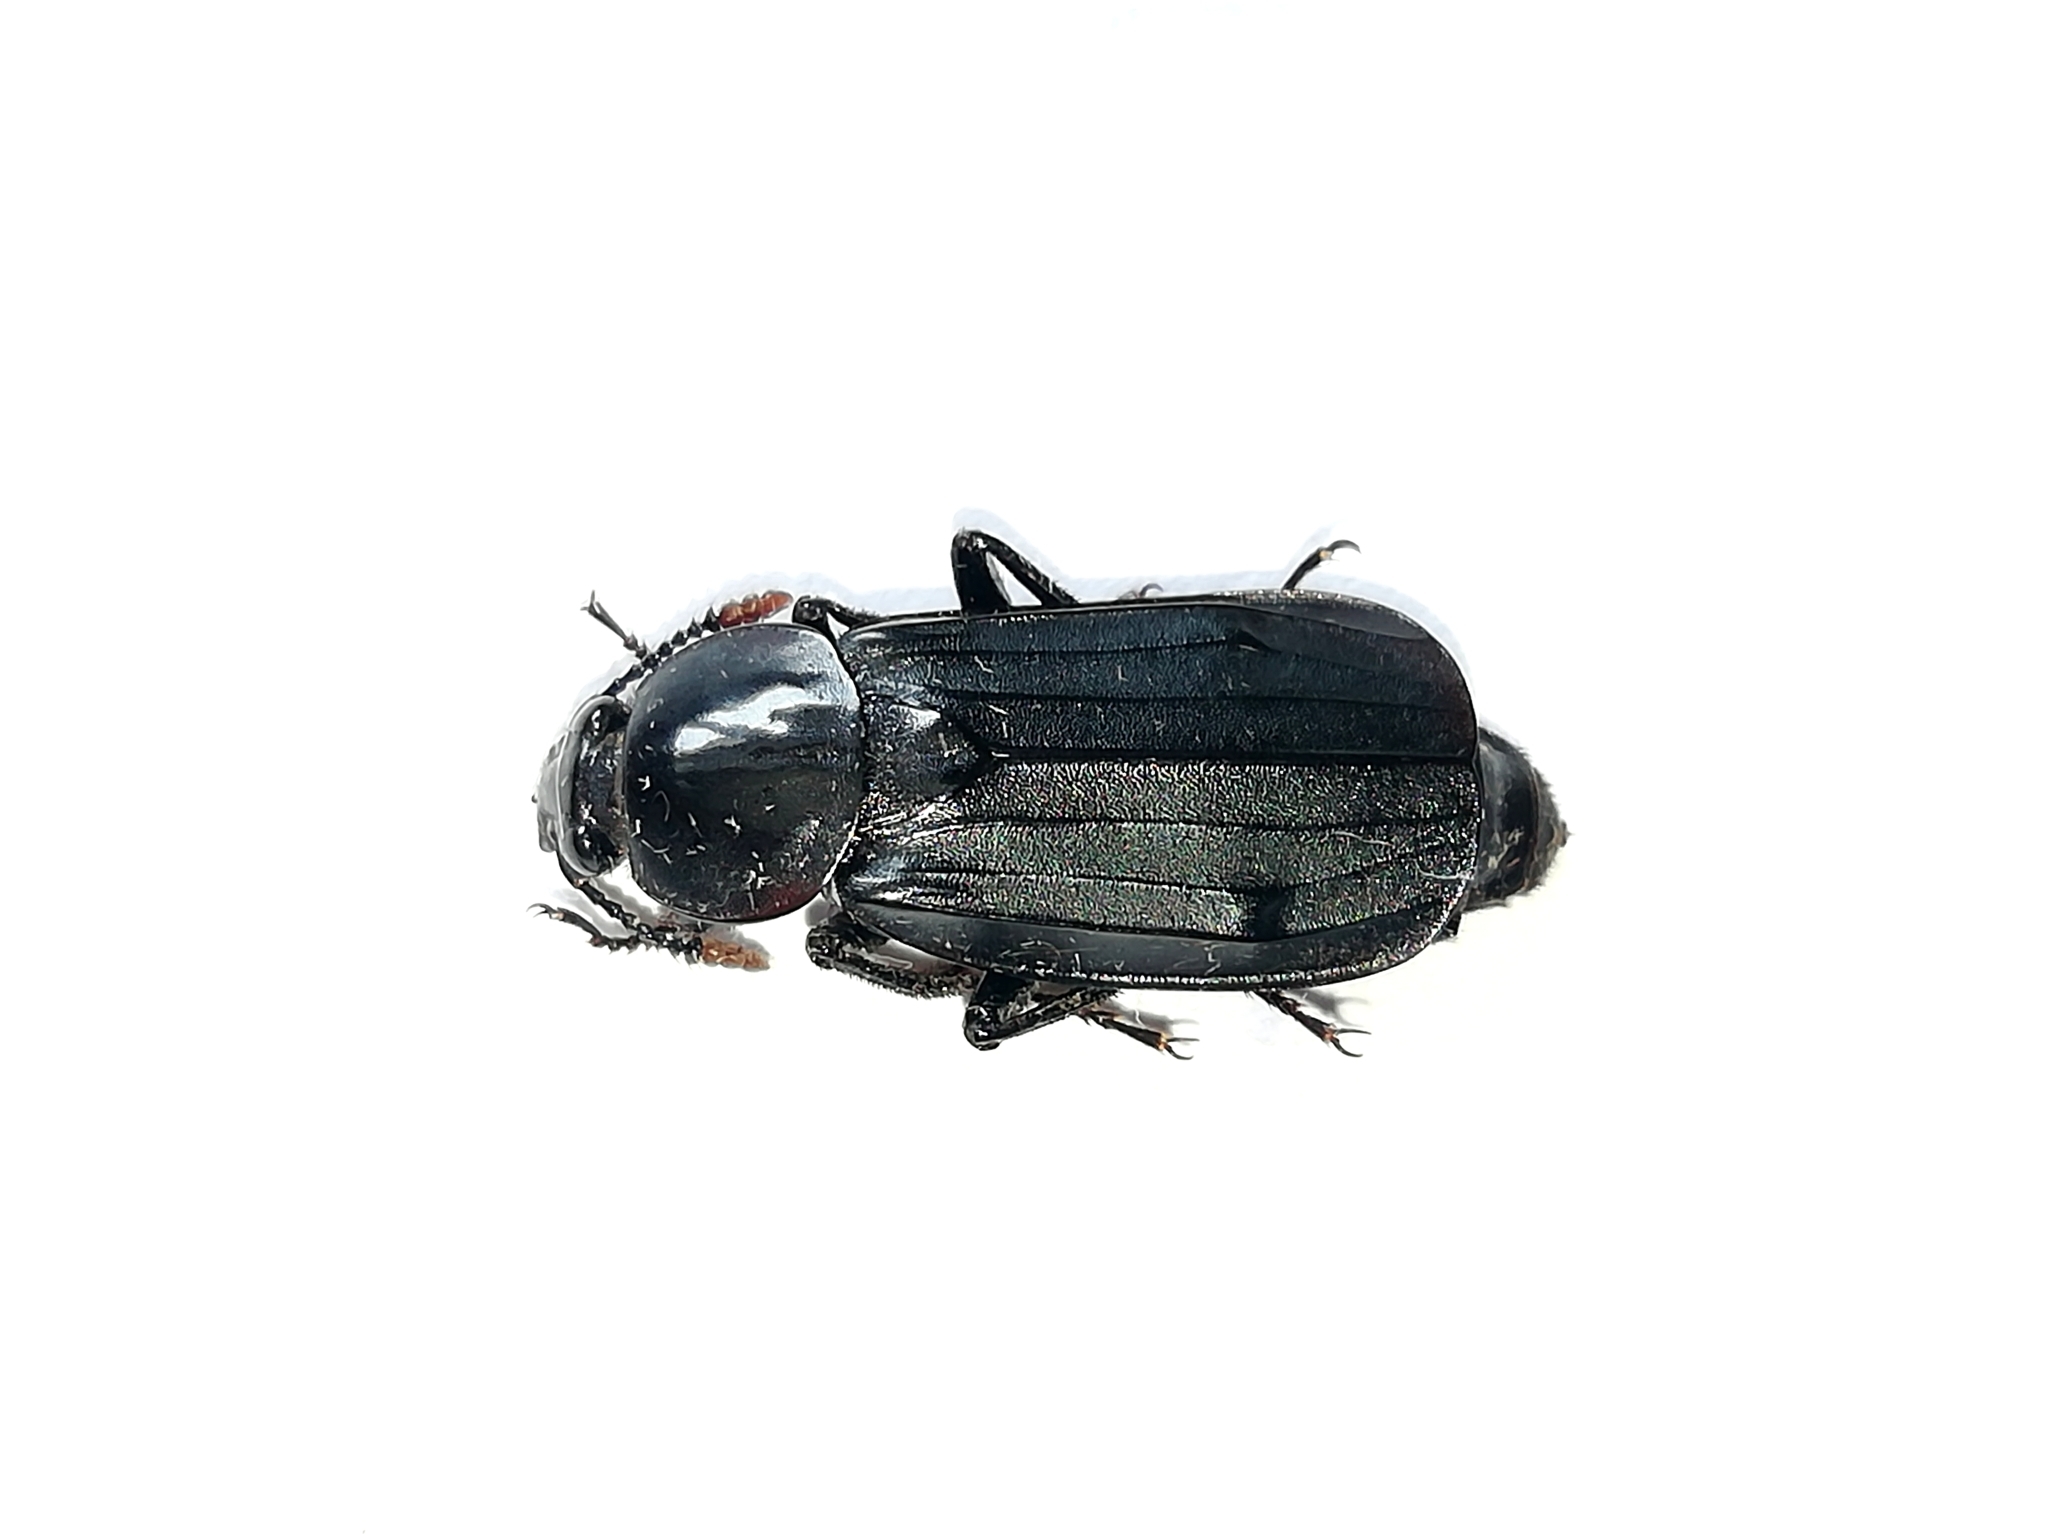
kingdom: Animalia
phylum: Arthropoda
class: Insecta
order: Coleoptera
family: Staphylinidae
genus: Necrodes
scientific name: Necrodes littoralis
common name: Shore sexton beetle
